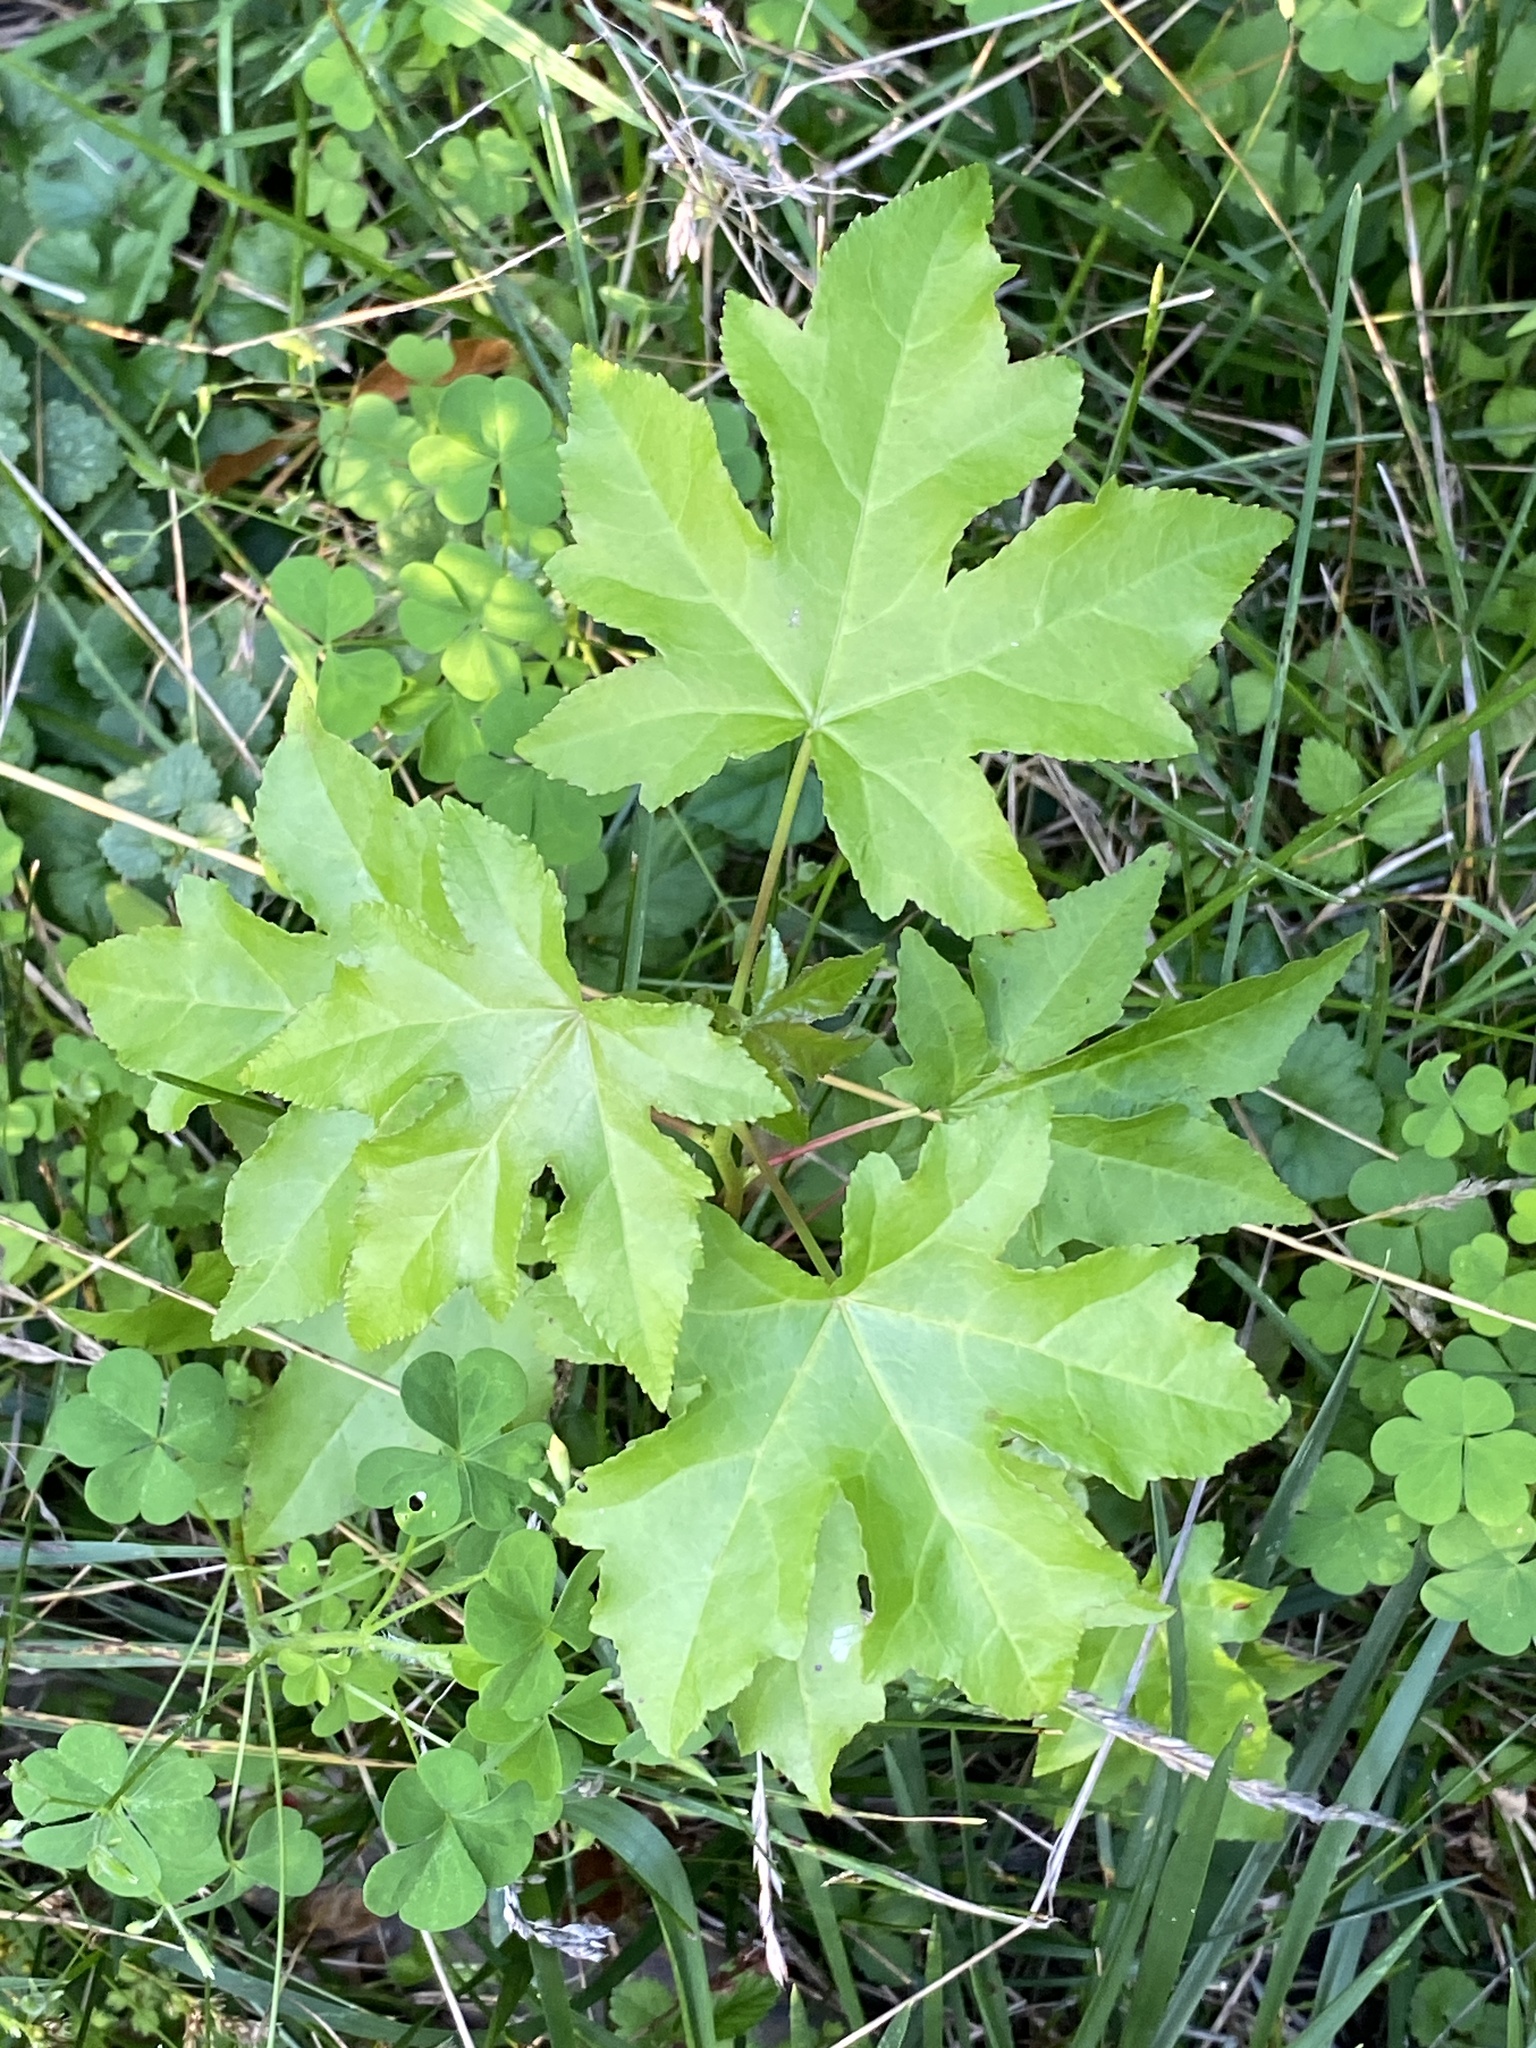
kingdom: Plantae
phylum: Tracheophyta
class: Magnoliopsida
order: Saxifragales
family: Altingiaceae
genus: Liquidambar
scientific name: Liquidambar styraciflua
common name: Sweet gum
